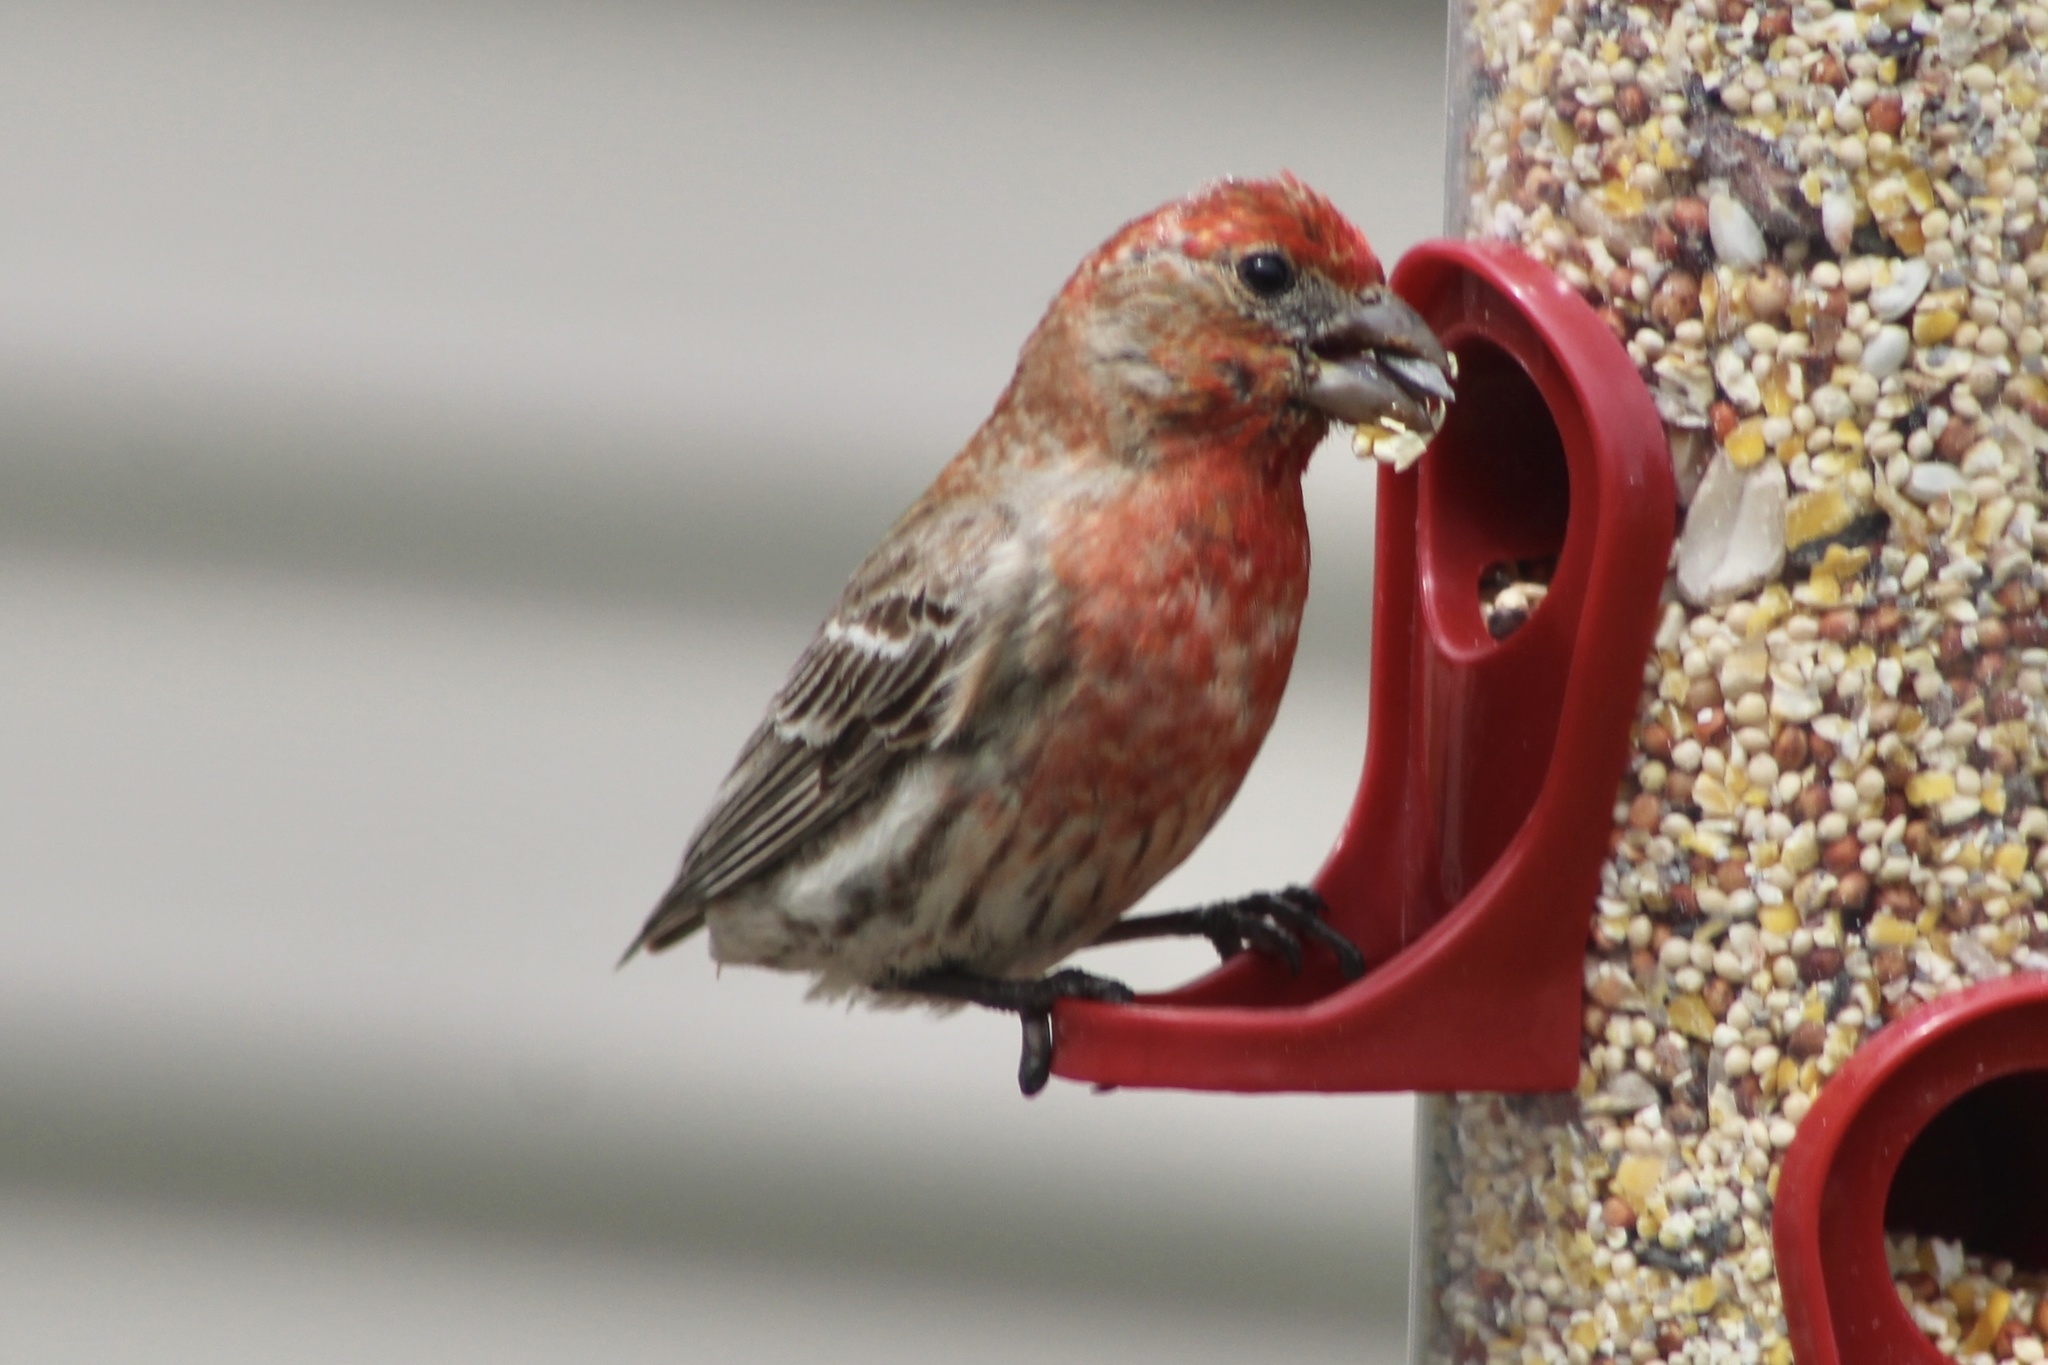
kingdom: Animalia
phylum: Chordata
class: Aves
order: Passeriformes
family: Fringillidae
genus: Haemorhous
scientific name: Haemorhous mexicanus
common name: House finch
